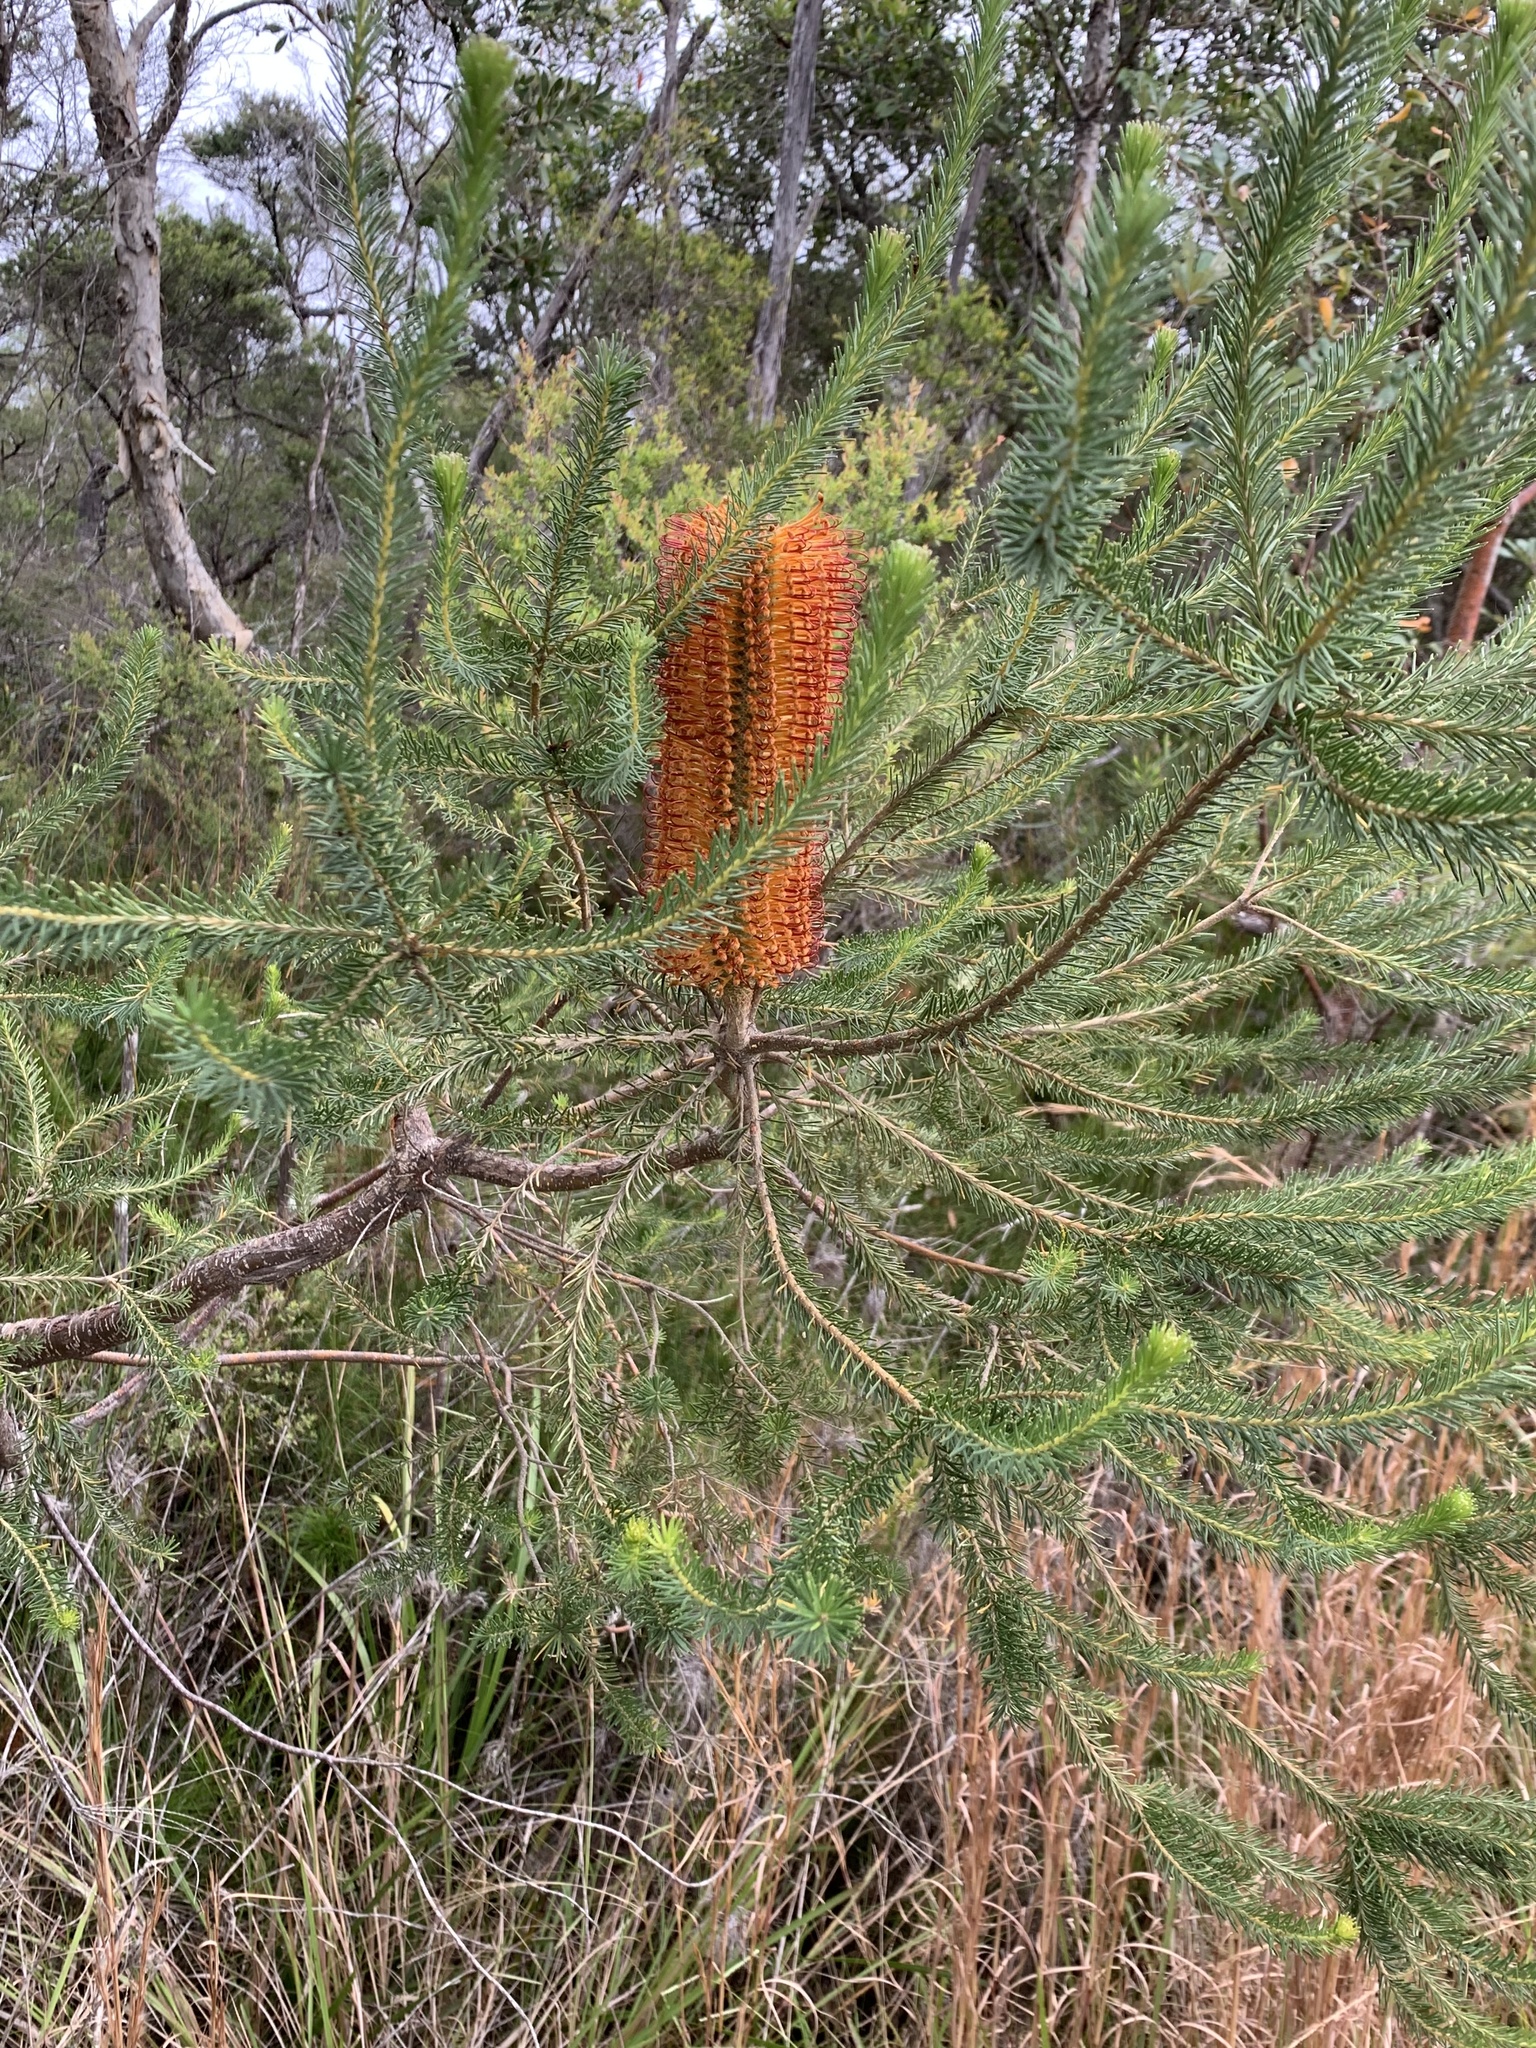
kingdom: Plantae
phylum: Tracheophyta
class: Magnoliopsida
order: Proteales
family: Proteaceae
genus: Banksia
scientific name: Banksia ericifolia
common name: Heath-leaf banksia
